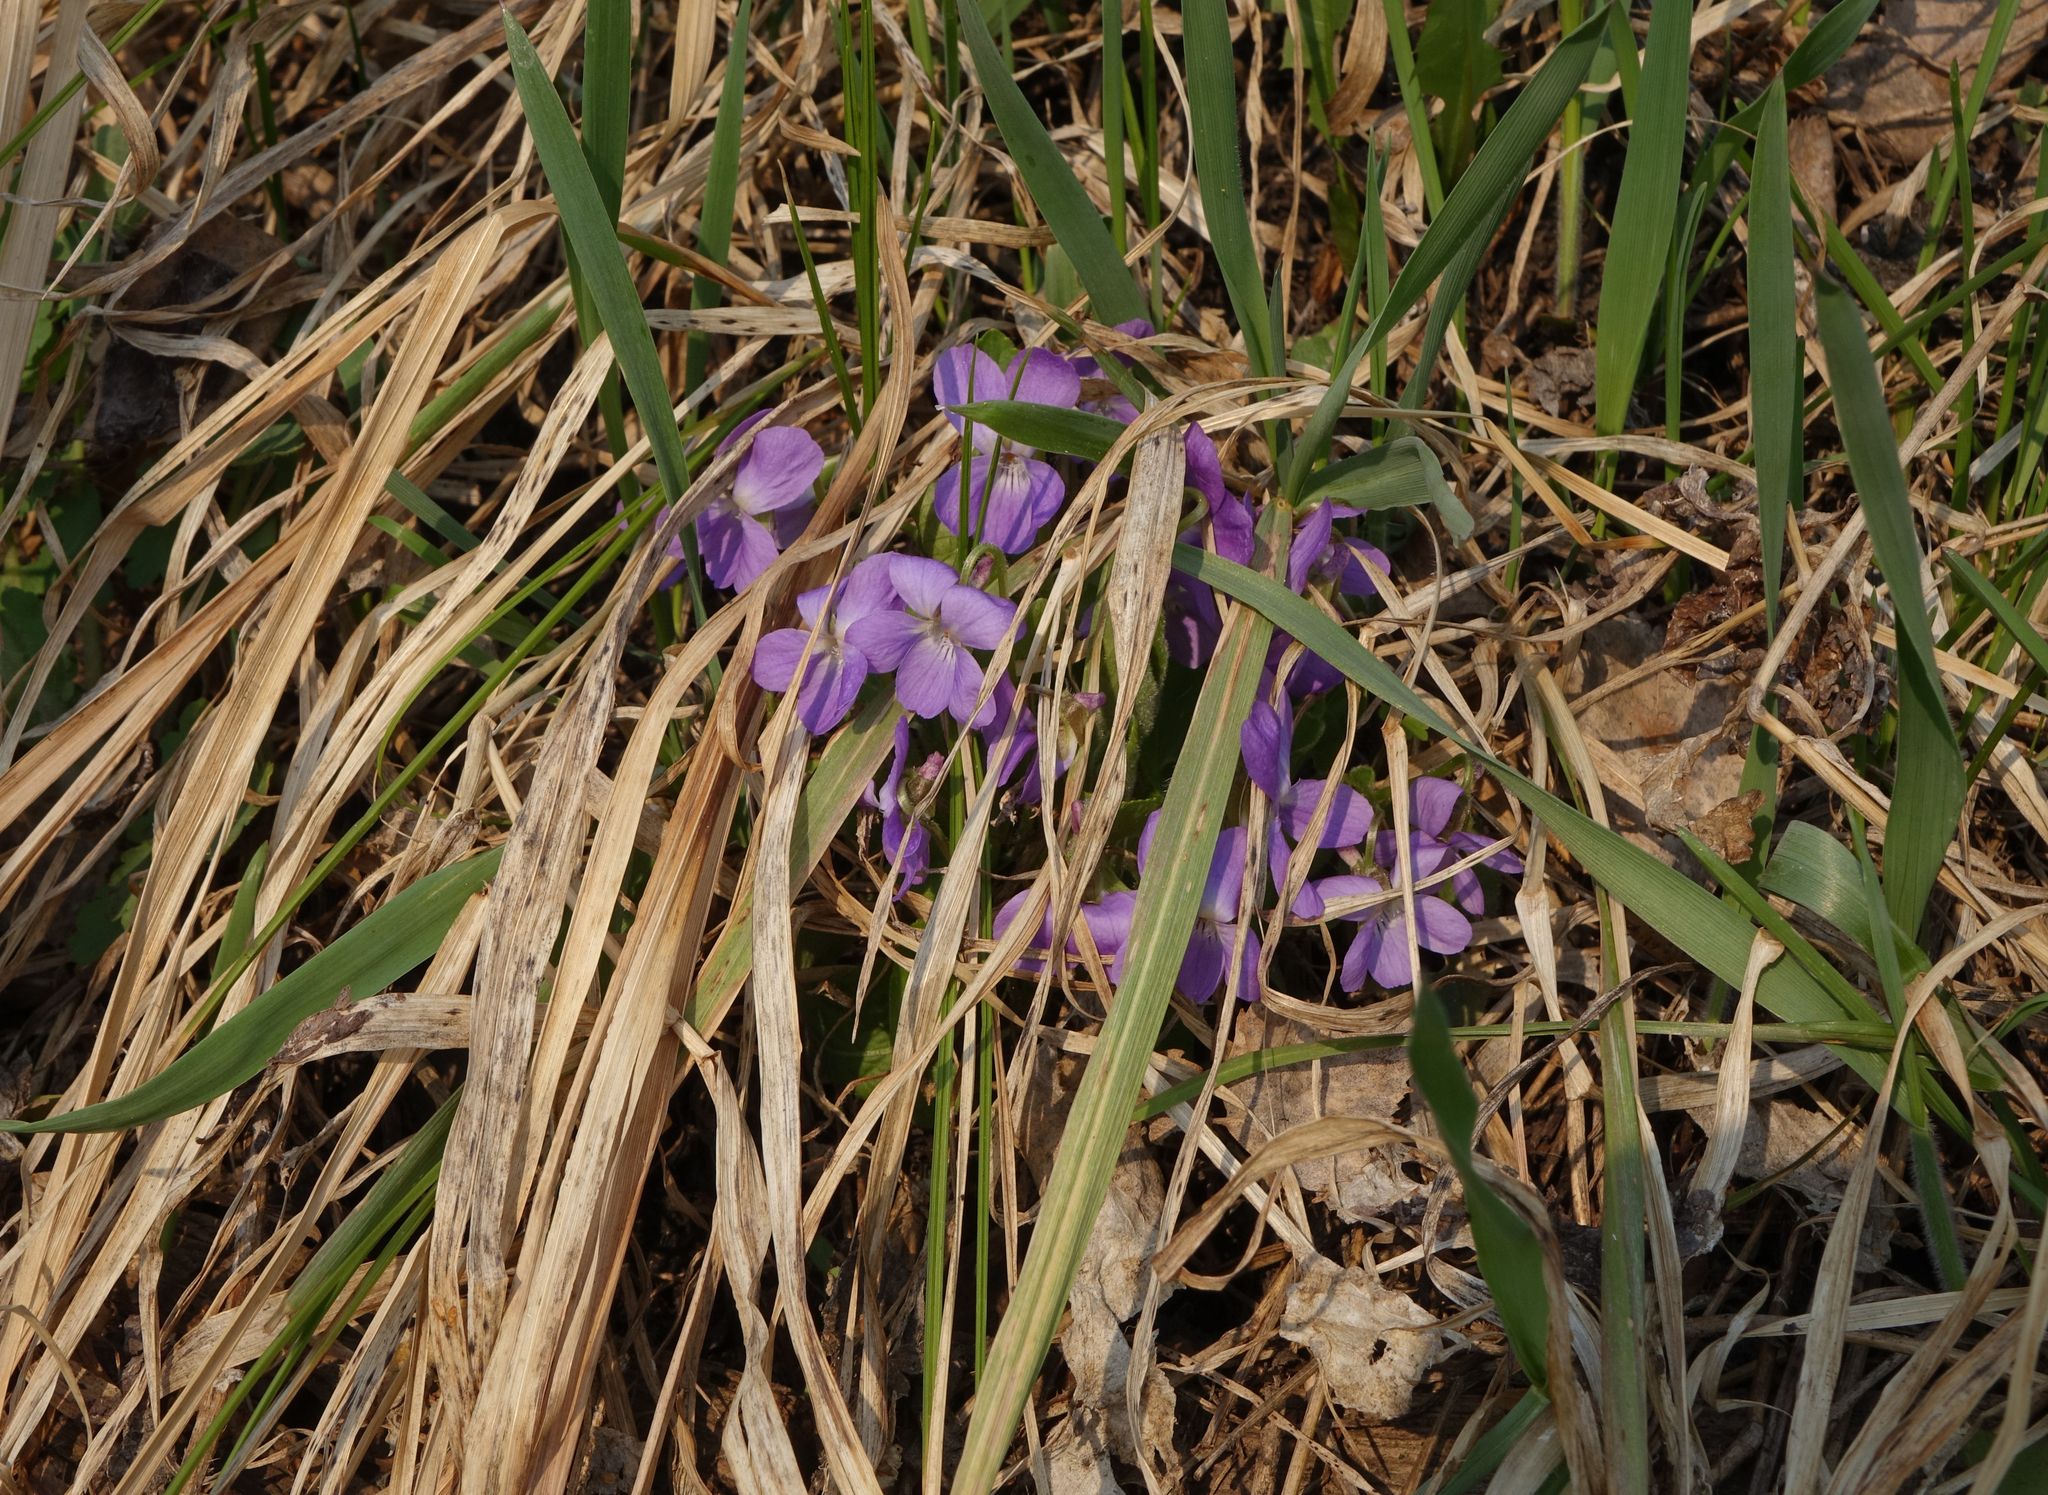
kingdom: Plantae
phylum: Tracheophyta
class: Magnoliopsida
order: Malpighiales
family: Violaceae
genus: Viola
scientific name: Viola hirta
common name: Hairy violet
